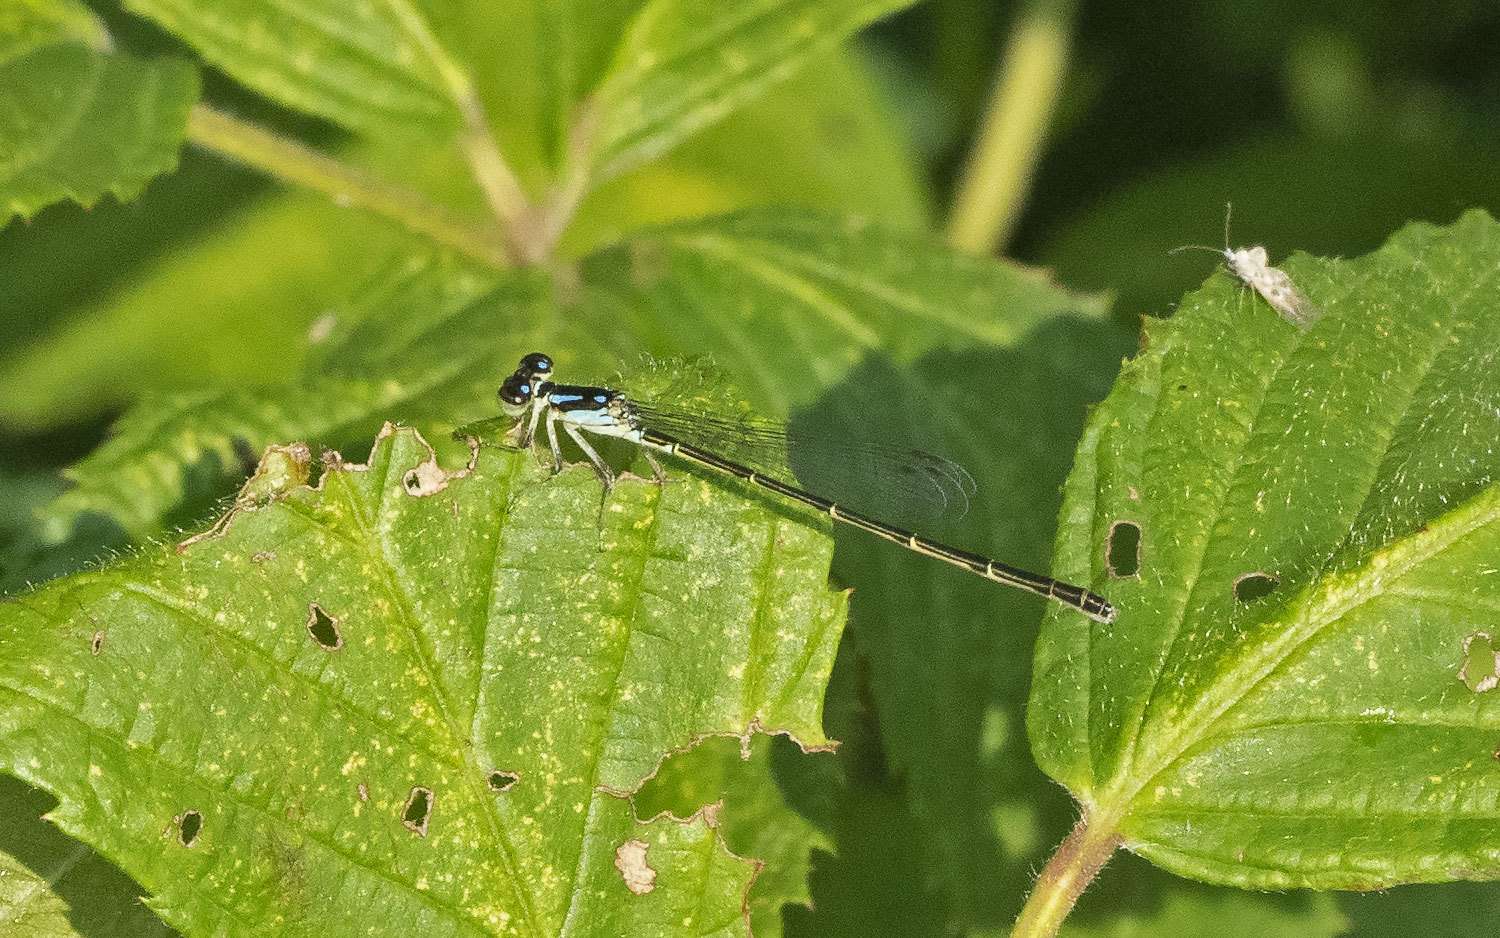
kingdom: Animalia
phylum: Arthropoda
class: Insecta
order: Odonata
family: Coenagrionidae
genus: Ischnura
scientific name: Ischnura posita
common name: Fragile forktail
